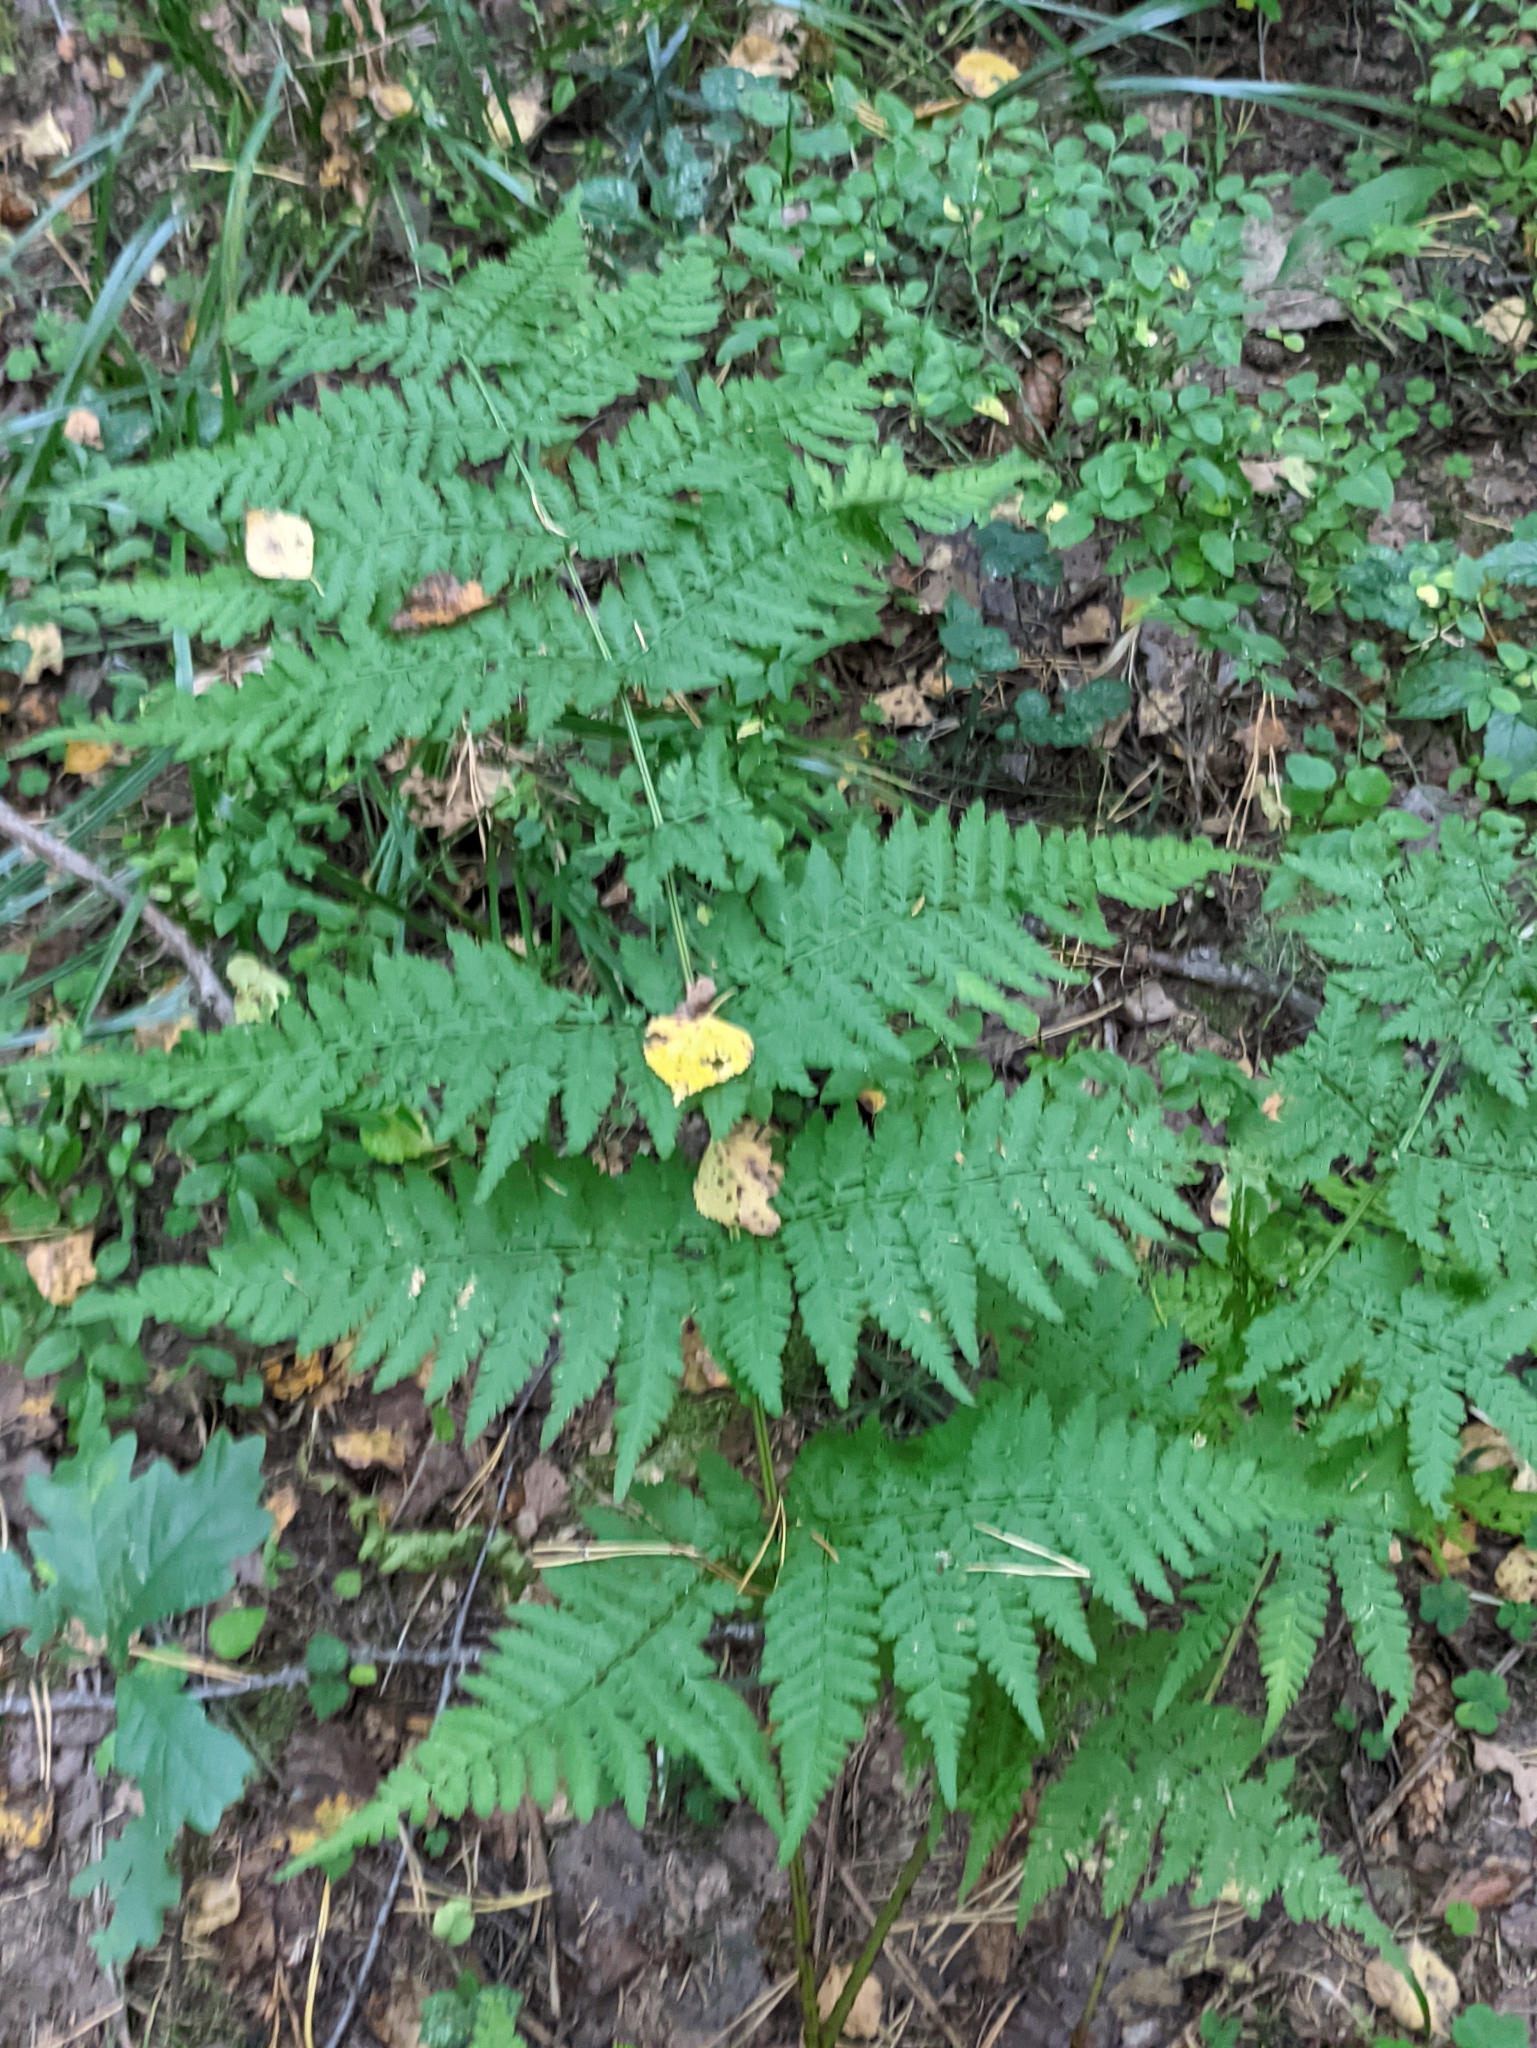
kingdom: Plantae
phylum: Tracheophyta
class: Polypodiopsida
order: Polypodiales
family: Dryopteridaceae
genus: Dryopteris
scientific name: Dryopteris carthusiana
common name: Narrow buckler-fern
